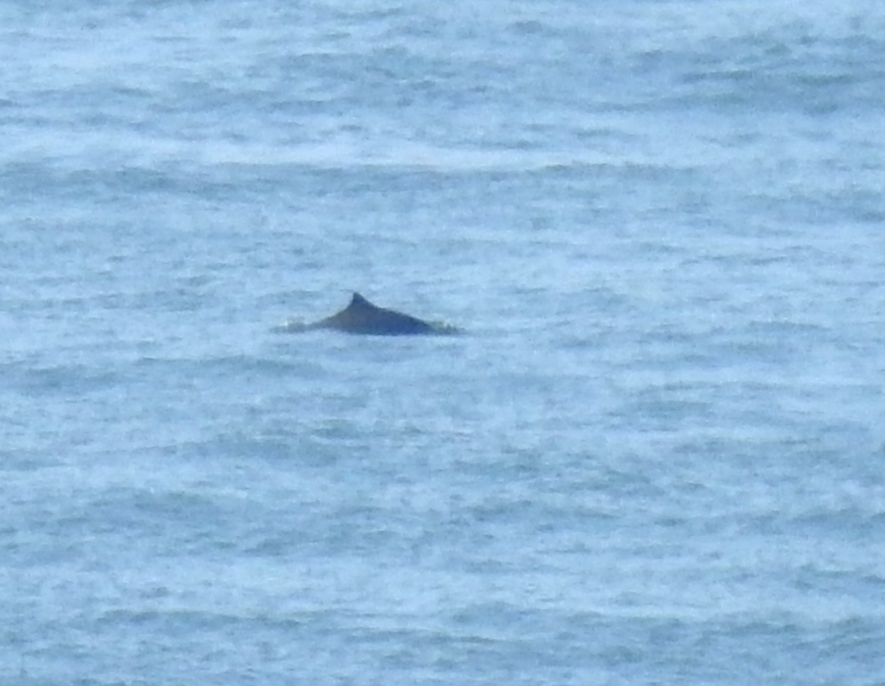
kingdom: Animalia
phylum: Chordata
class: Mammalia
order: Cetacea
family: Phocoenidae
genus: Phocoena
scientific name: Phocoena phocoena
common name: Harbor porpoise
